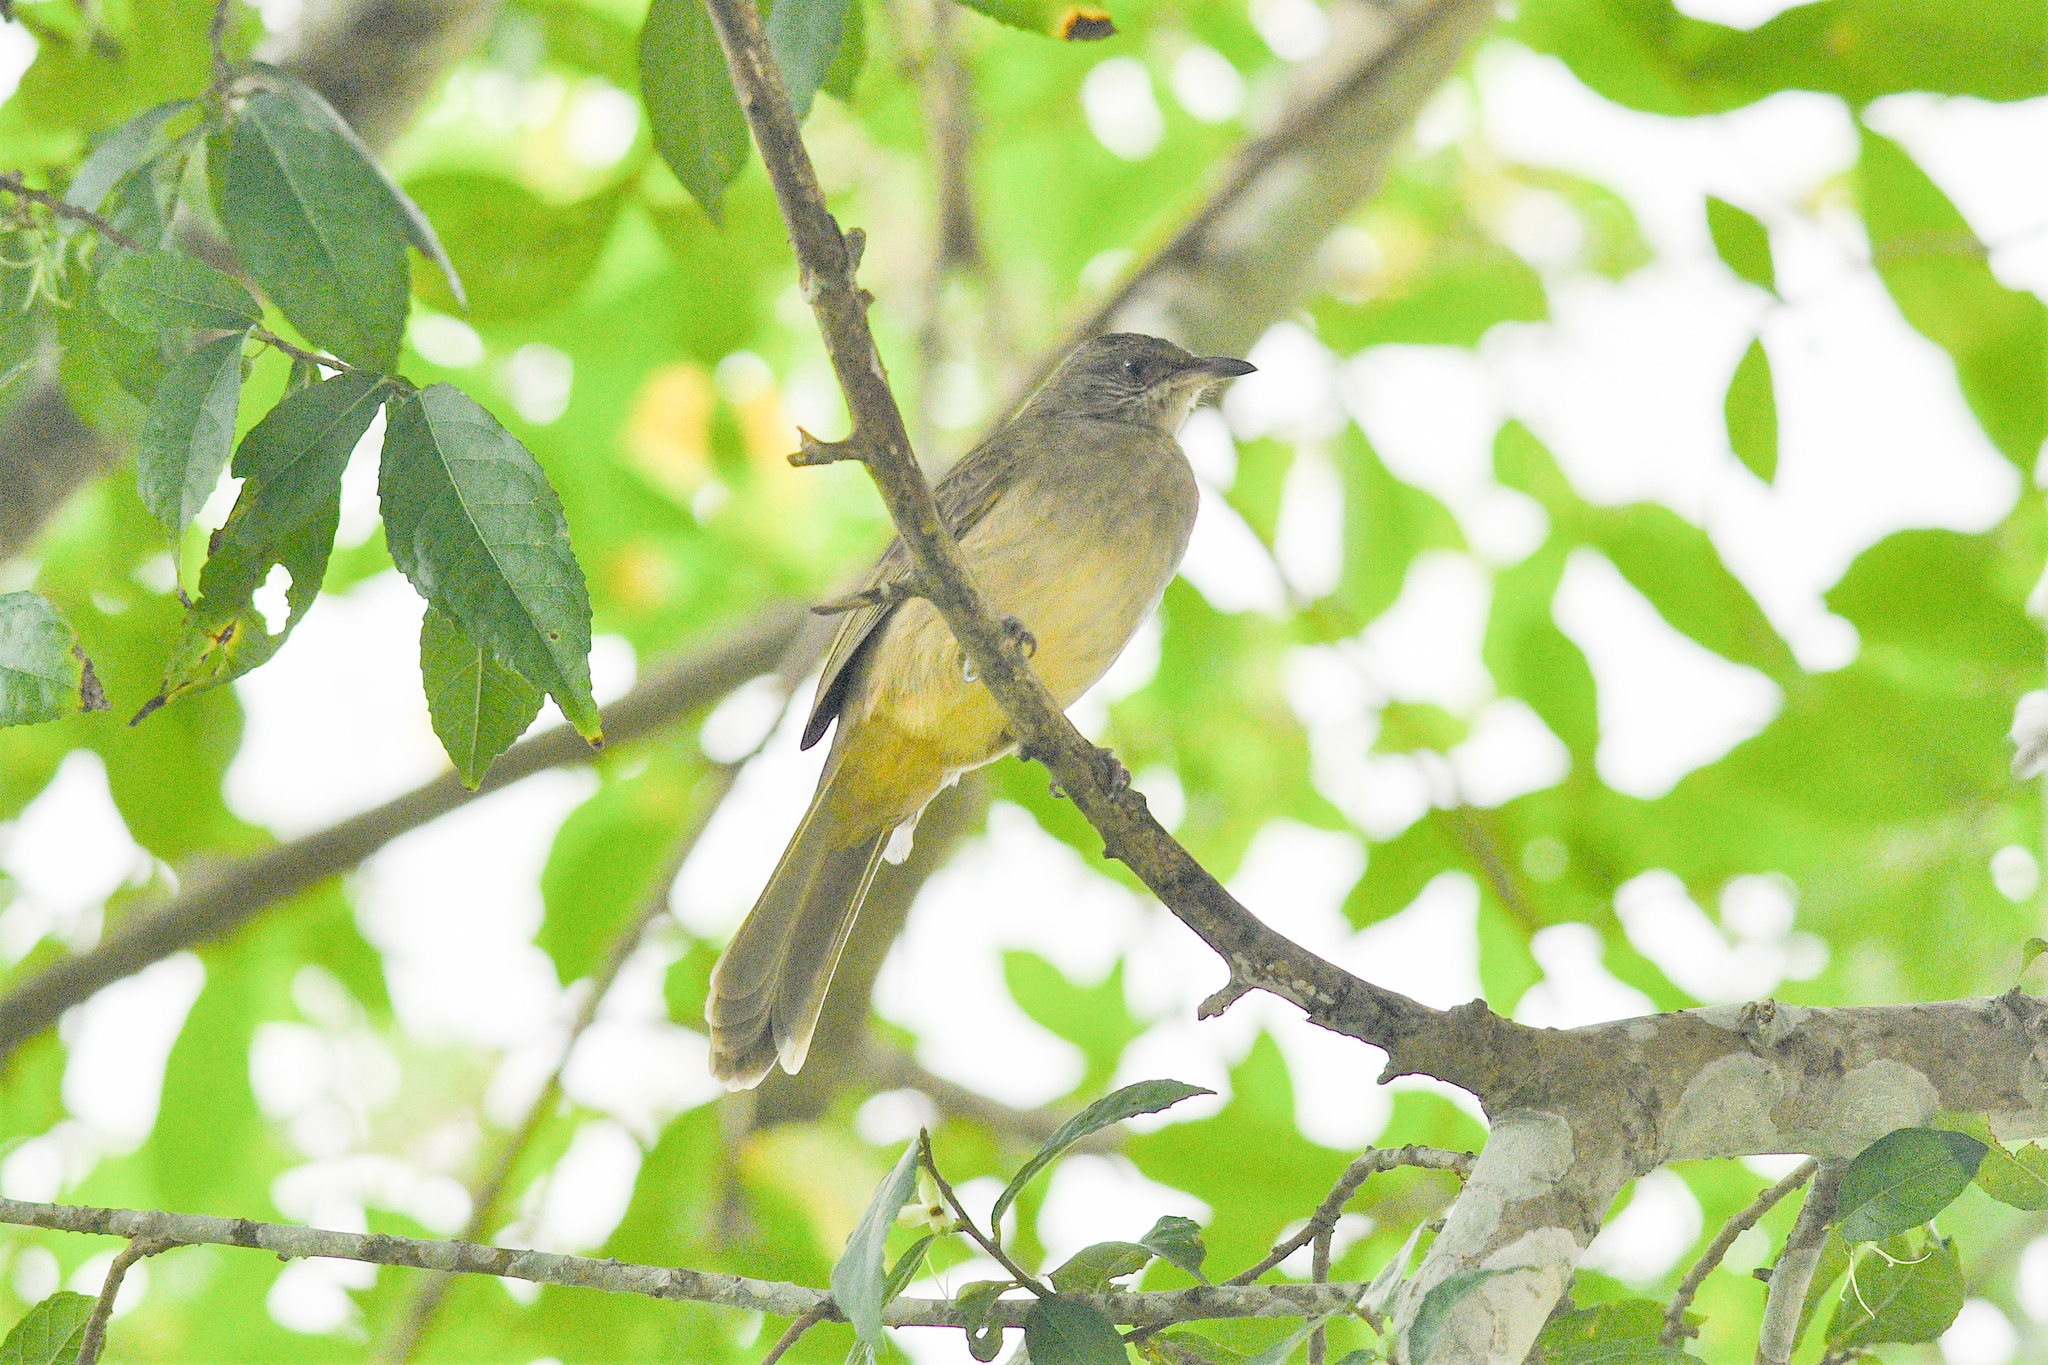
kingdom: Animalia
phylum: Chordata
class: Aves
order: Passeriformes
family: Pycnonotidae
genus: Pycnonotus
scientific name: Pycnonotus blanfordi
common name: Streak-eared bulbul
